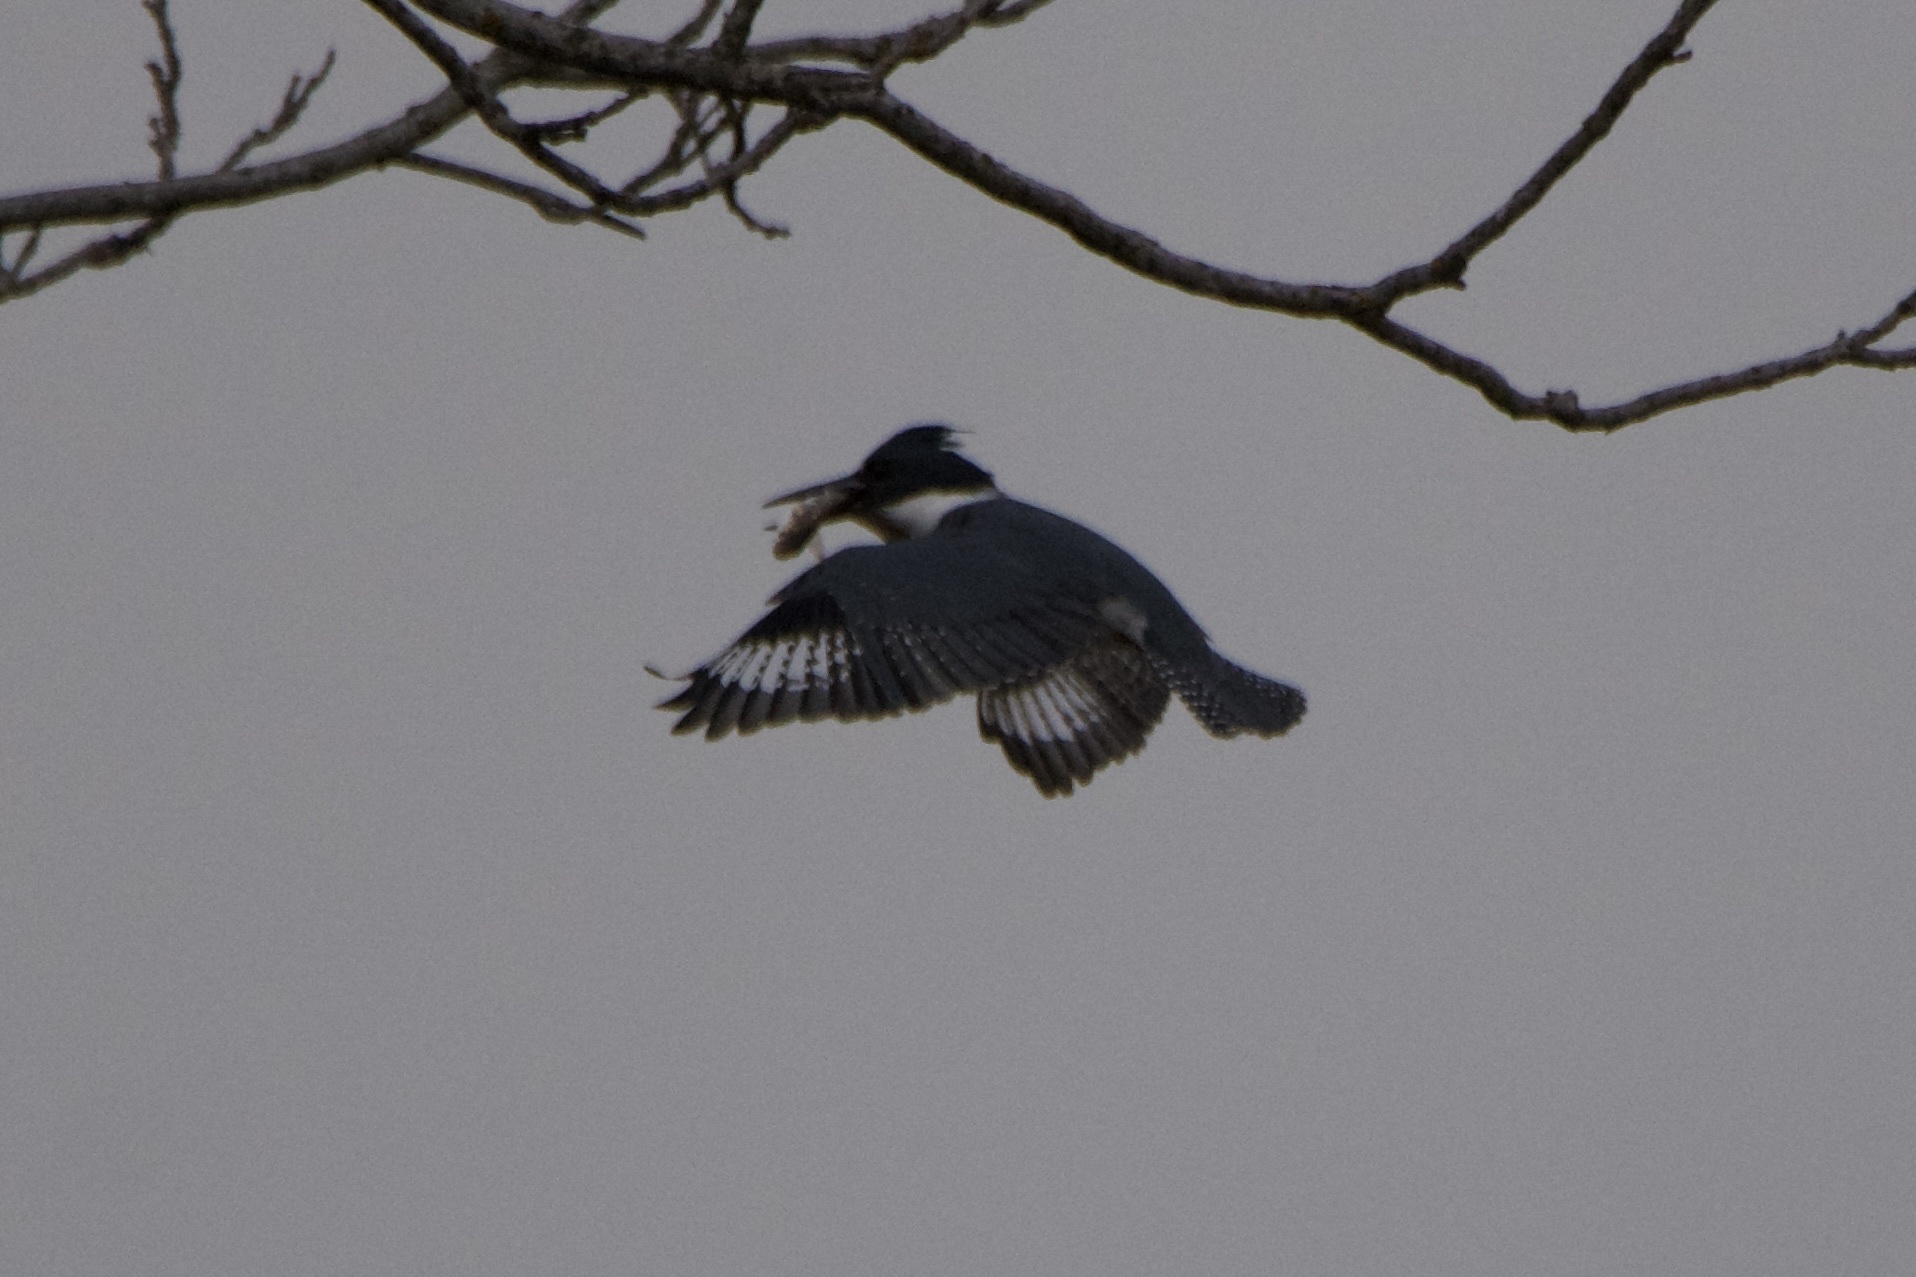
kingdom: Animalia
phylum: Chordata
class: Aves
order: Coraciiformes
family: Alcedinidae
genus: Megaceryle
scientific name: Megaceryle alcyon
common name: Belted kingfisher
